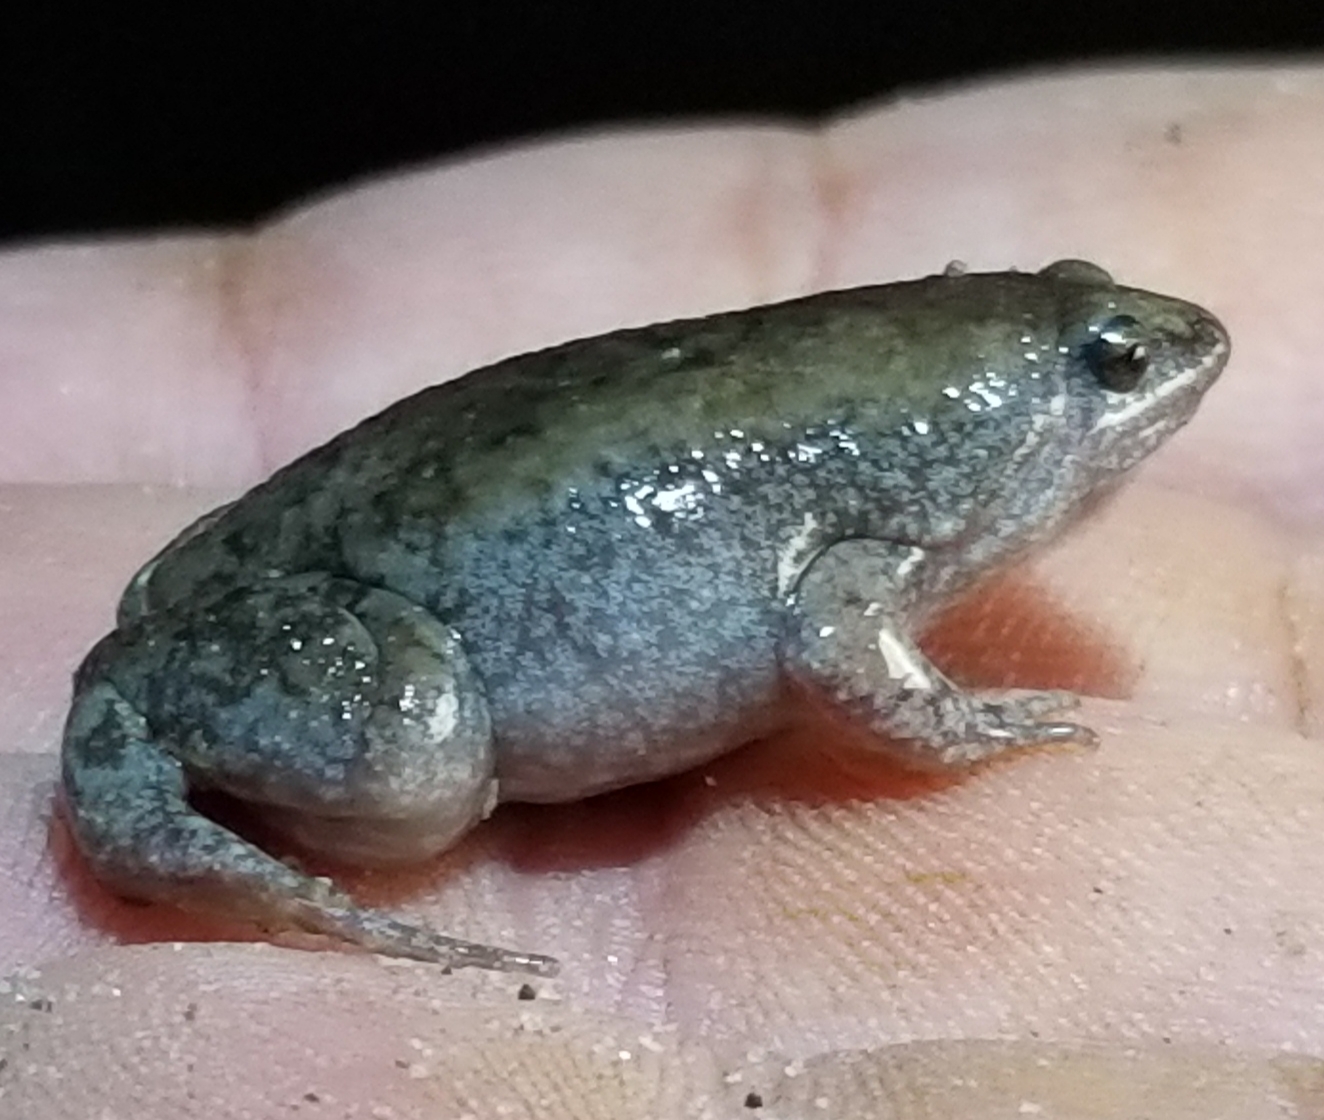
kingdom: Animalia
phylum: Chordata
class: Amphibia
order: Anura
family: Microhylidae
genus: Gastrophryne
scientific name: Gastrophryne carolinensis
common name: Eastern narrowmouth toad
